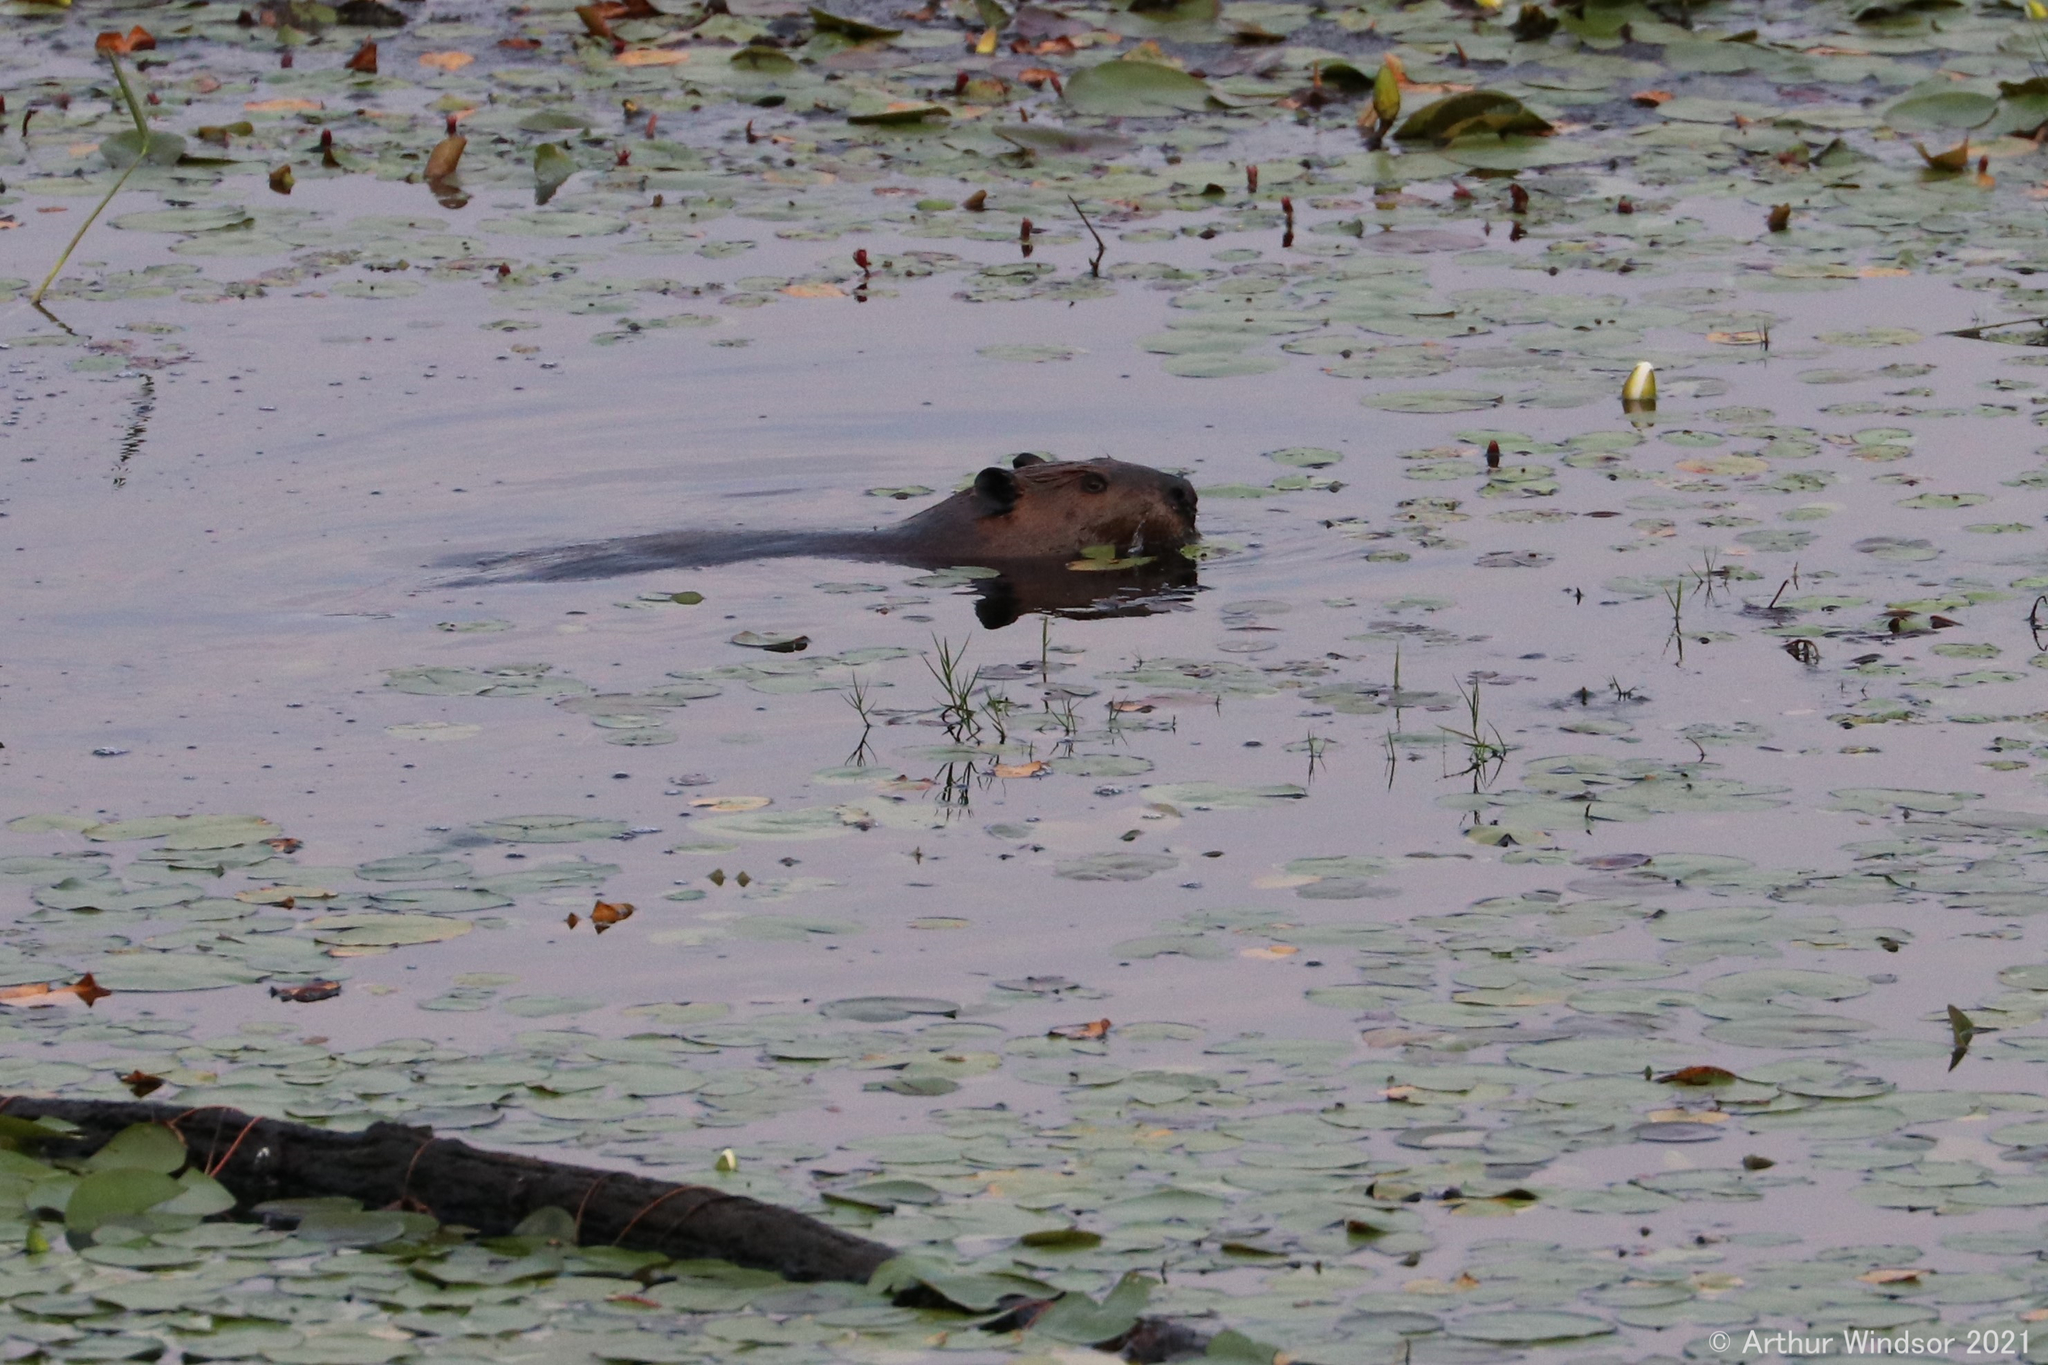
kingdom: Animalia
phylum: Chordata
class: Mammalia
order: Rodentia
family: Castoridae
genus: Castor
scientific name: Castor canadensis
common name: American beaver
